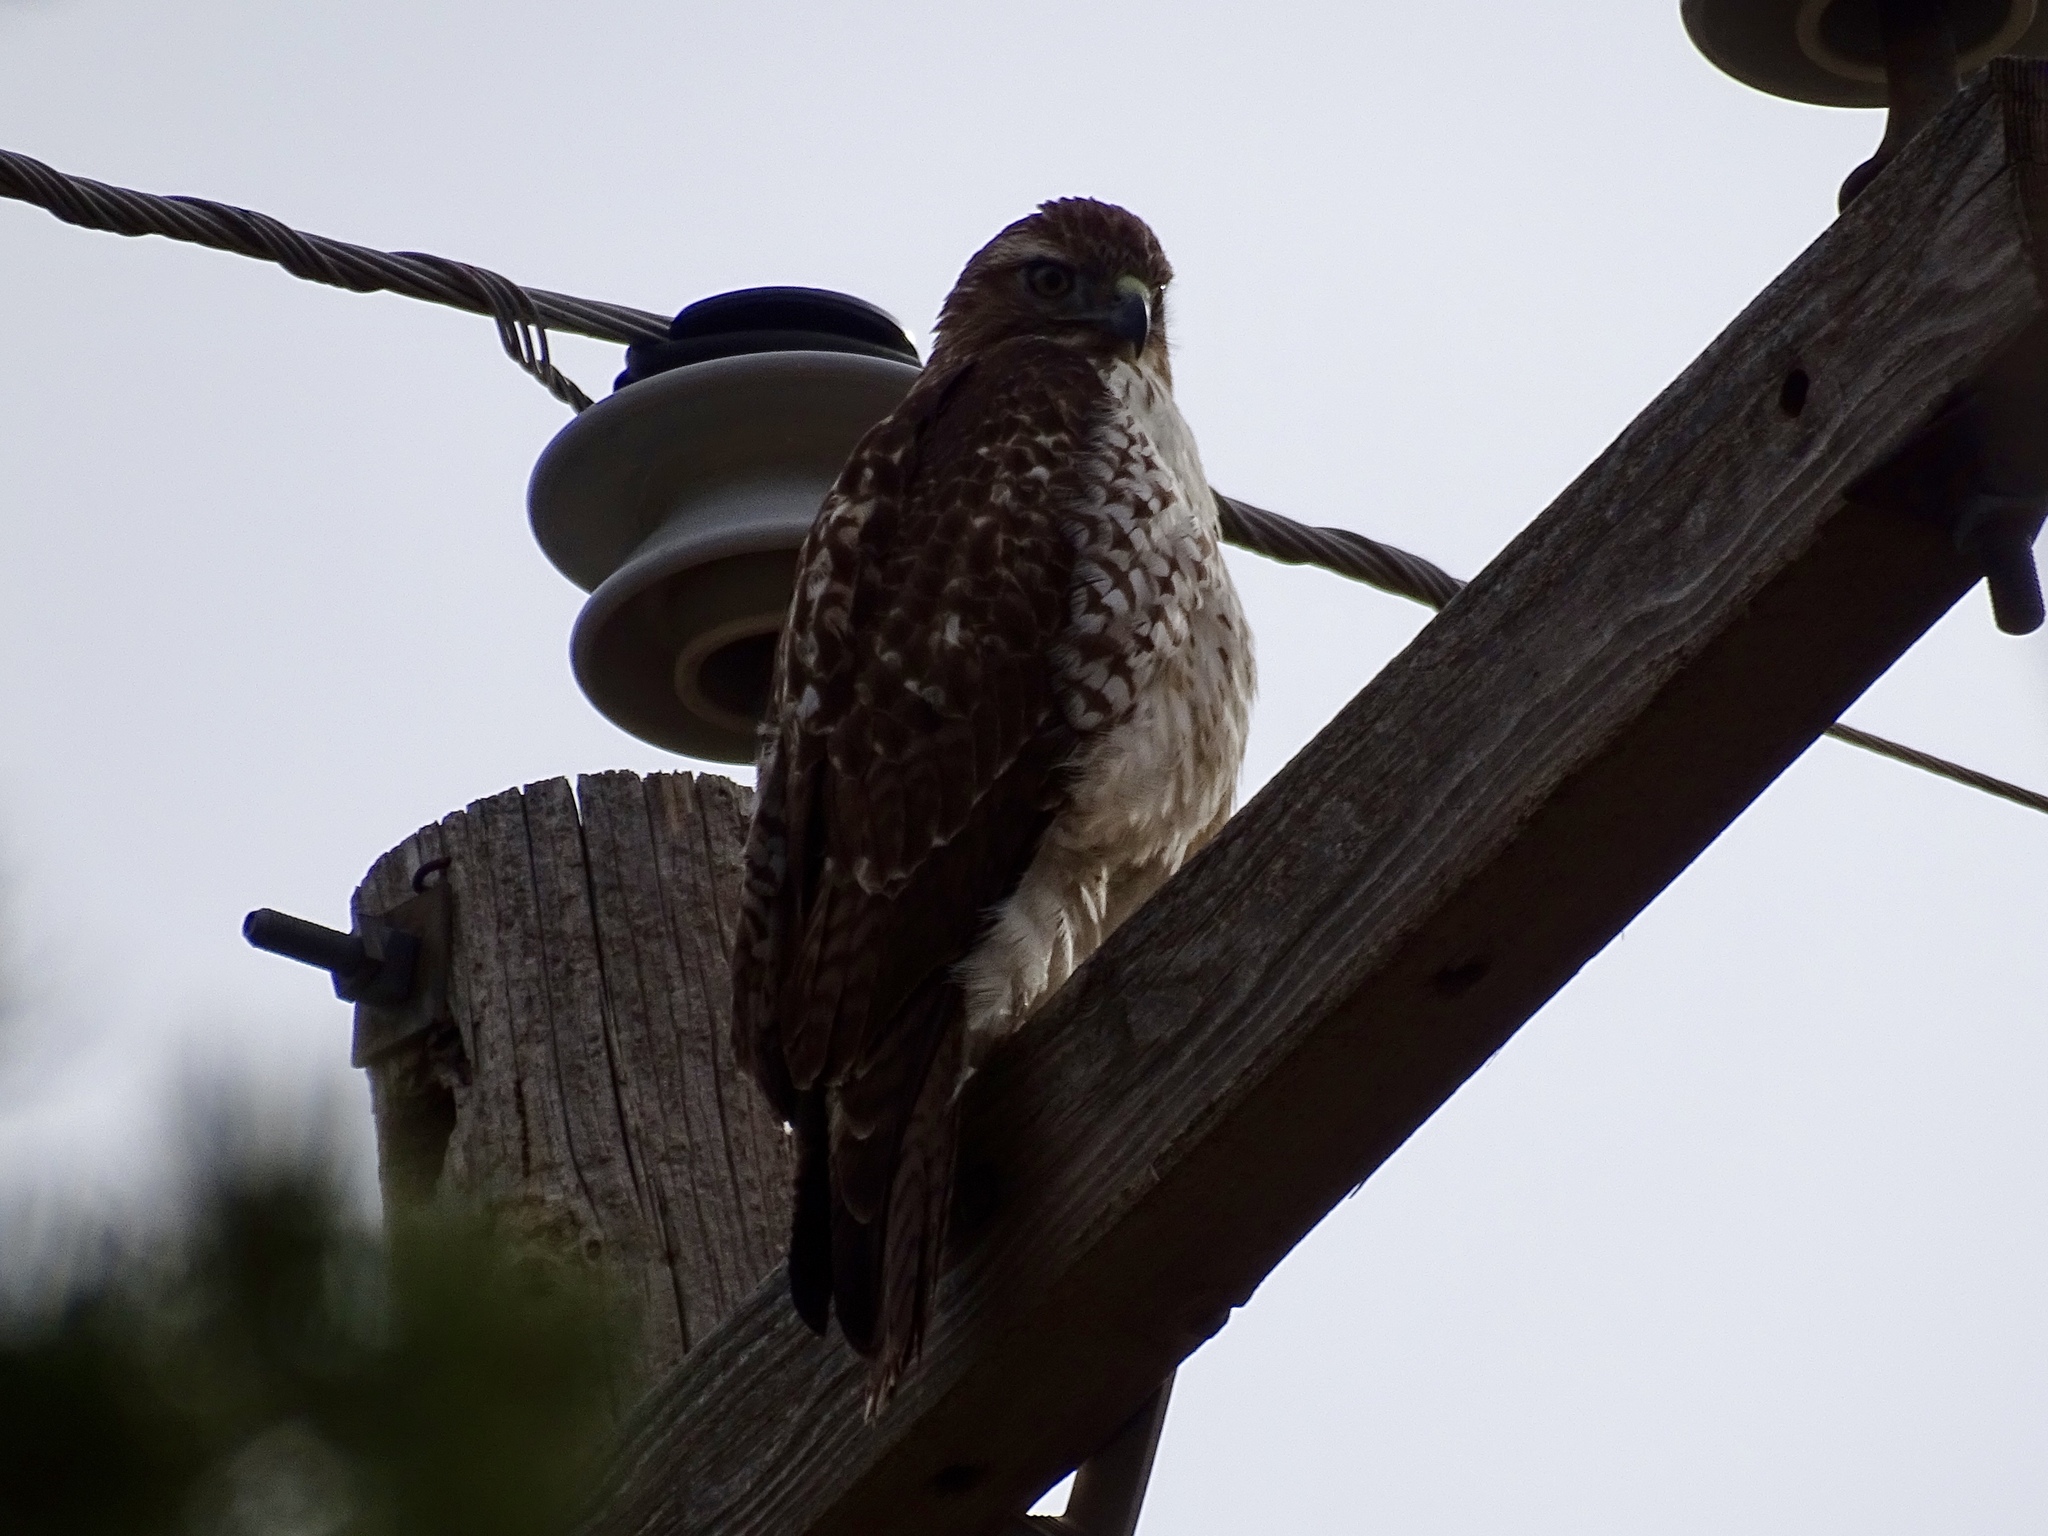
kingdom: Animalia
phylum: Chordata
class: Aves
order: Accipitriformes
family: Accipitridae
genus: Buteo
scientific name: Buteo jamaicensis
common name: Red-tailed hawk
